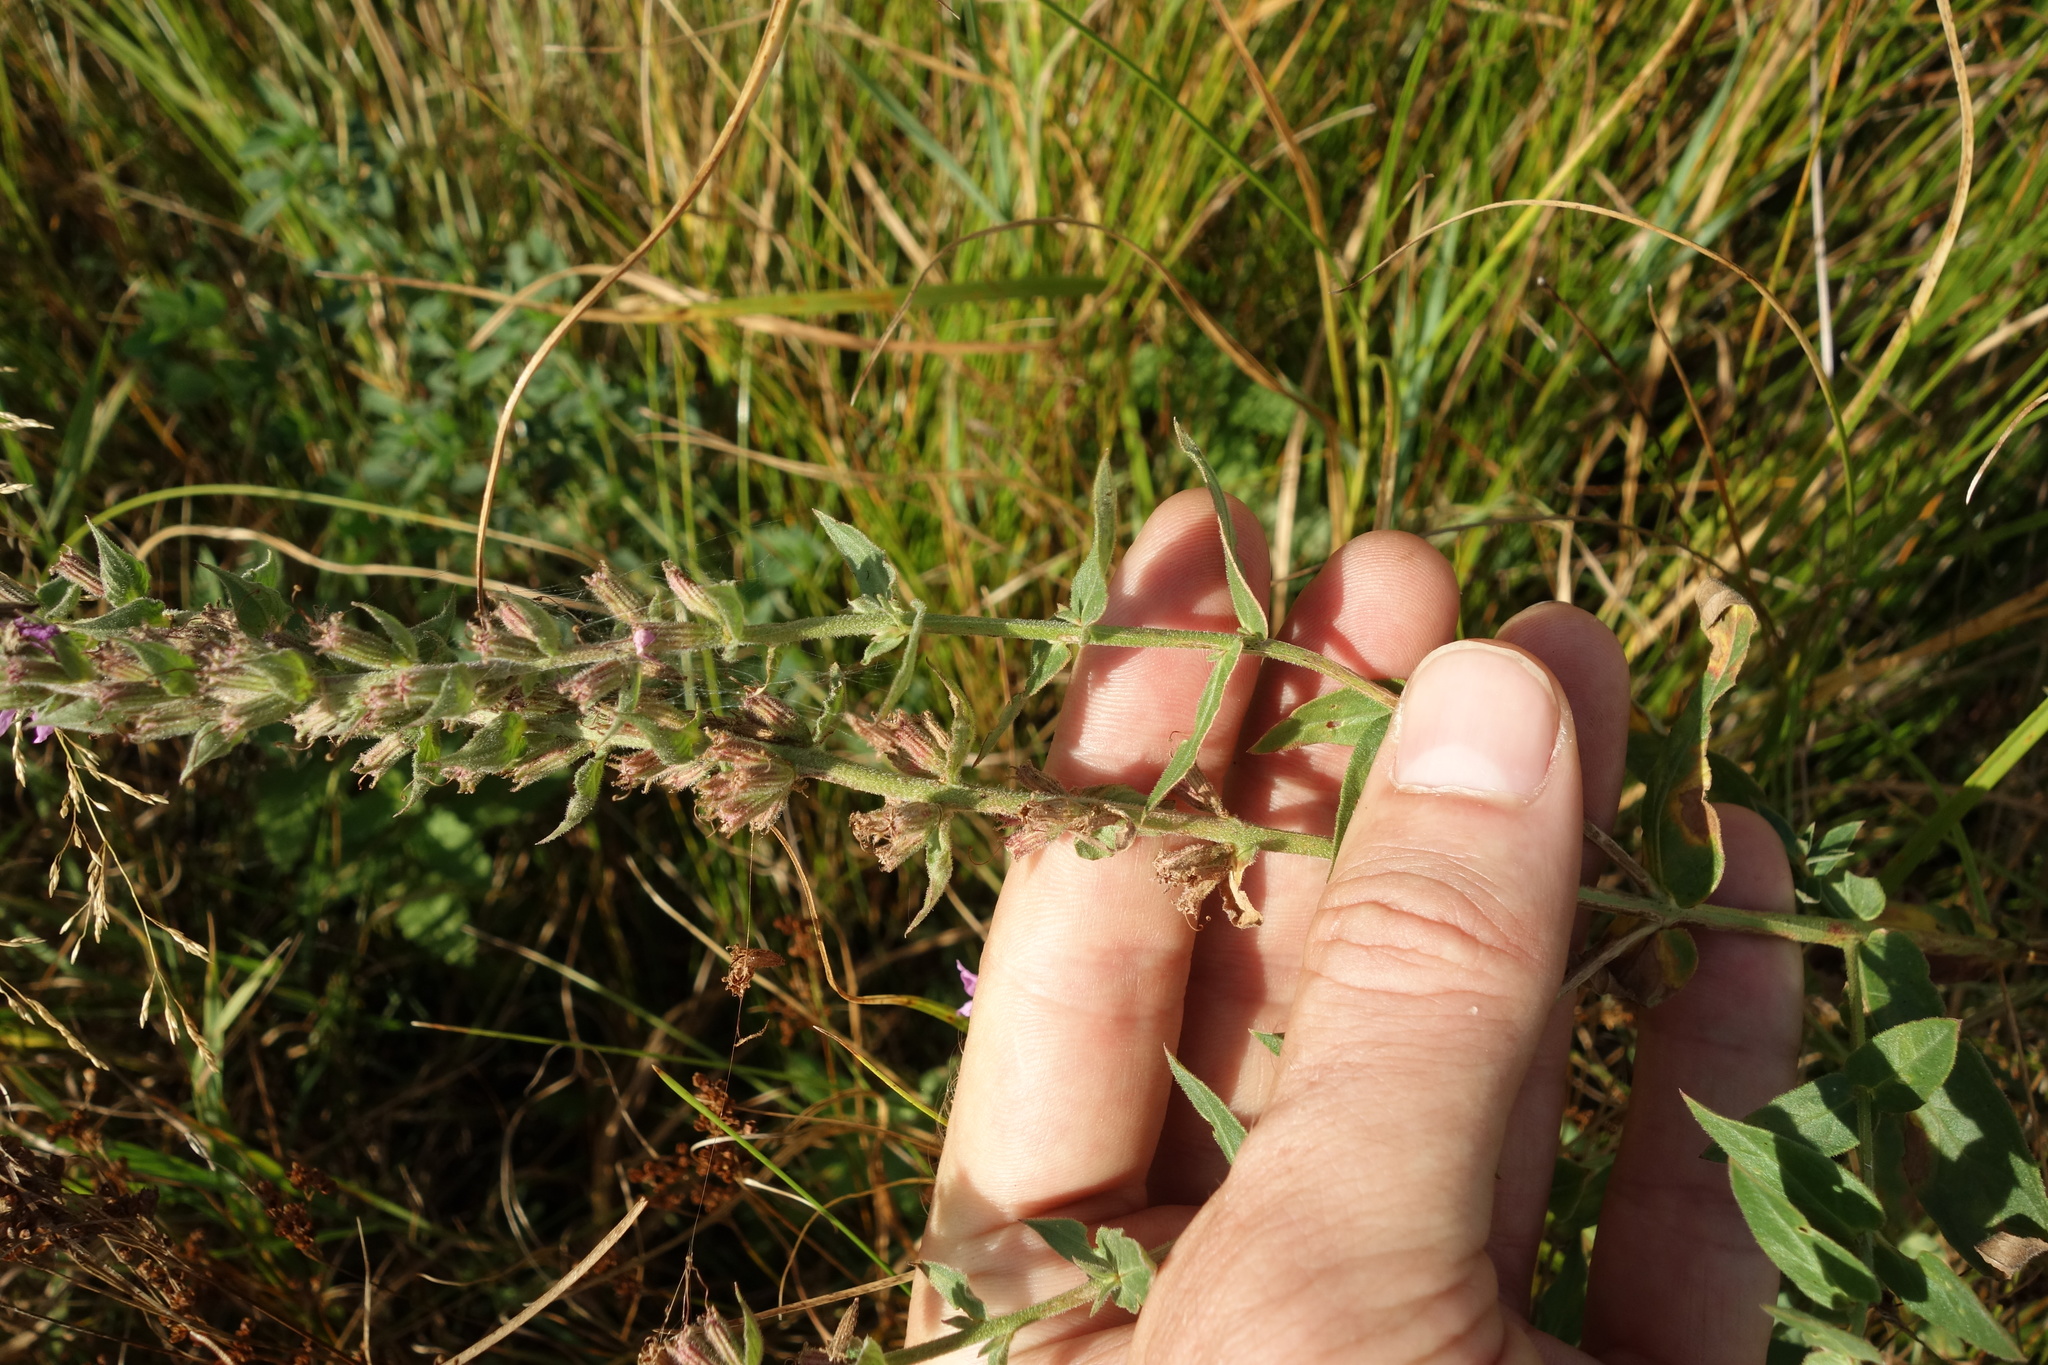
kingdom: Plantae
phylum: Tracheophyta
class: Magnoliopsida
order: Myrtales
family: Lythraceae
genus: Lythrum
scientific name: Lythrum salicaria
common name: Purple loosestrife
